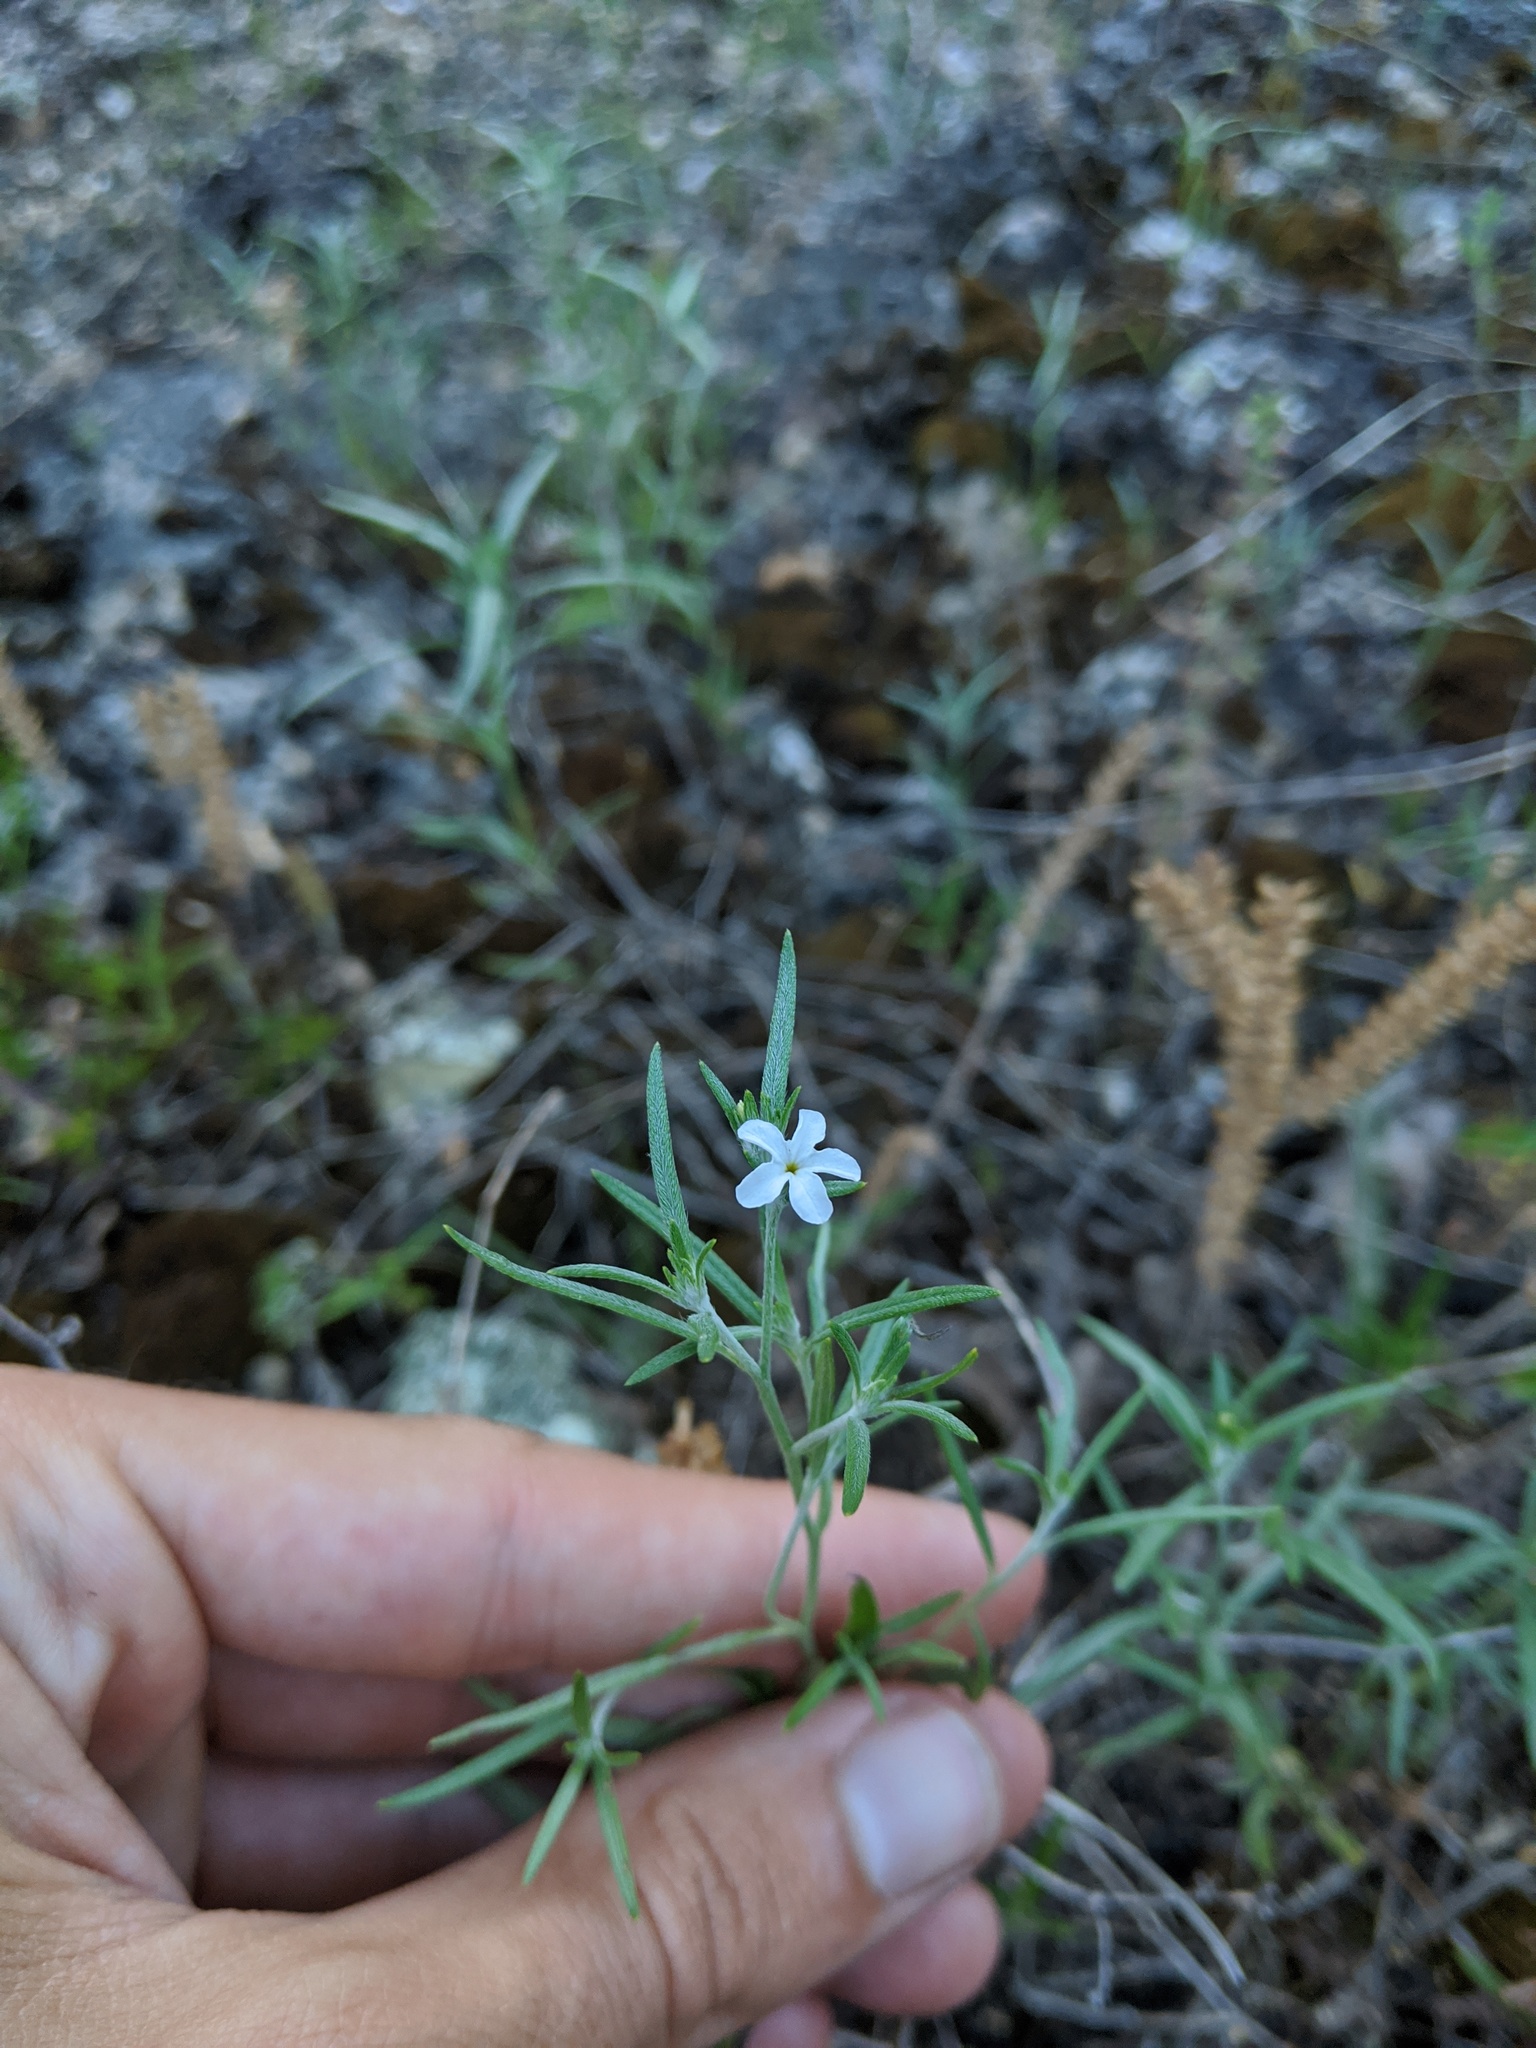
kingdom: Plantae
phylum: Tracheophyta
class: Magnoliopsida
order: Boraginales
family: Heliotropiaceae
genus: Euploca
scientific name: Euploca tenella
